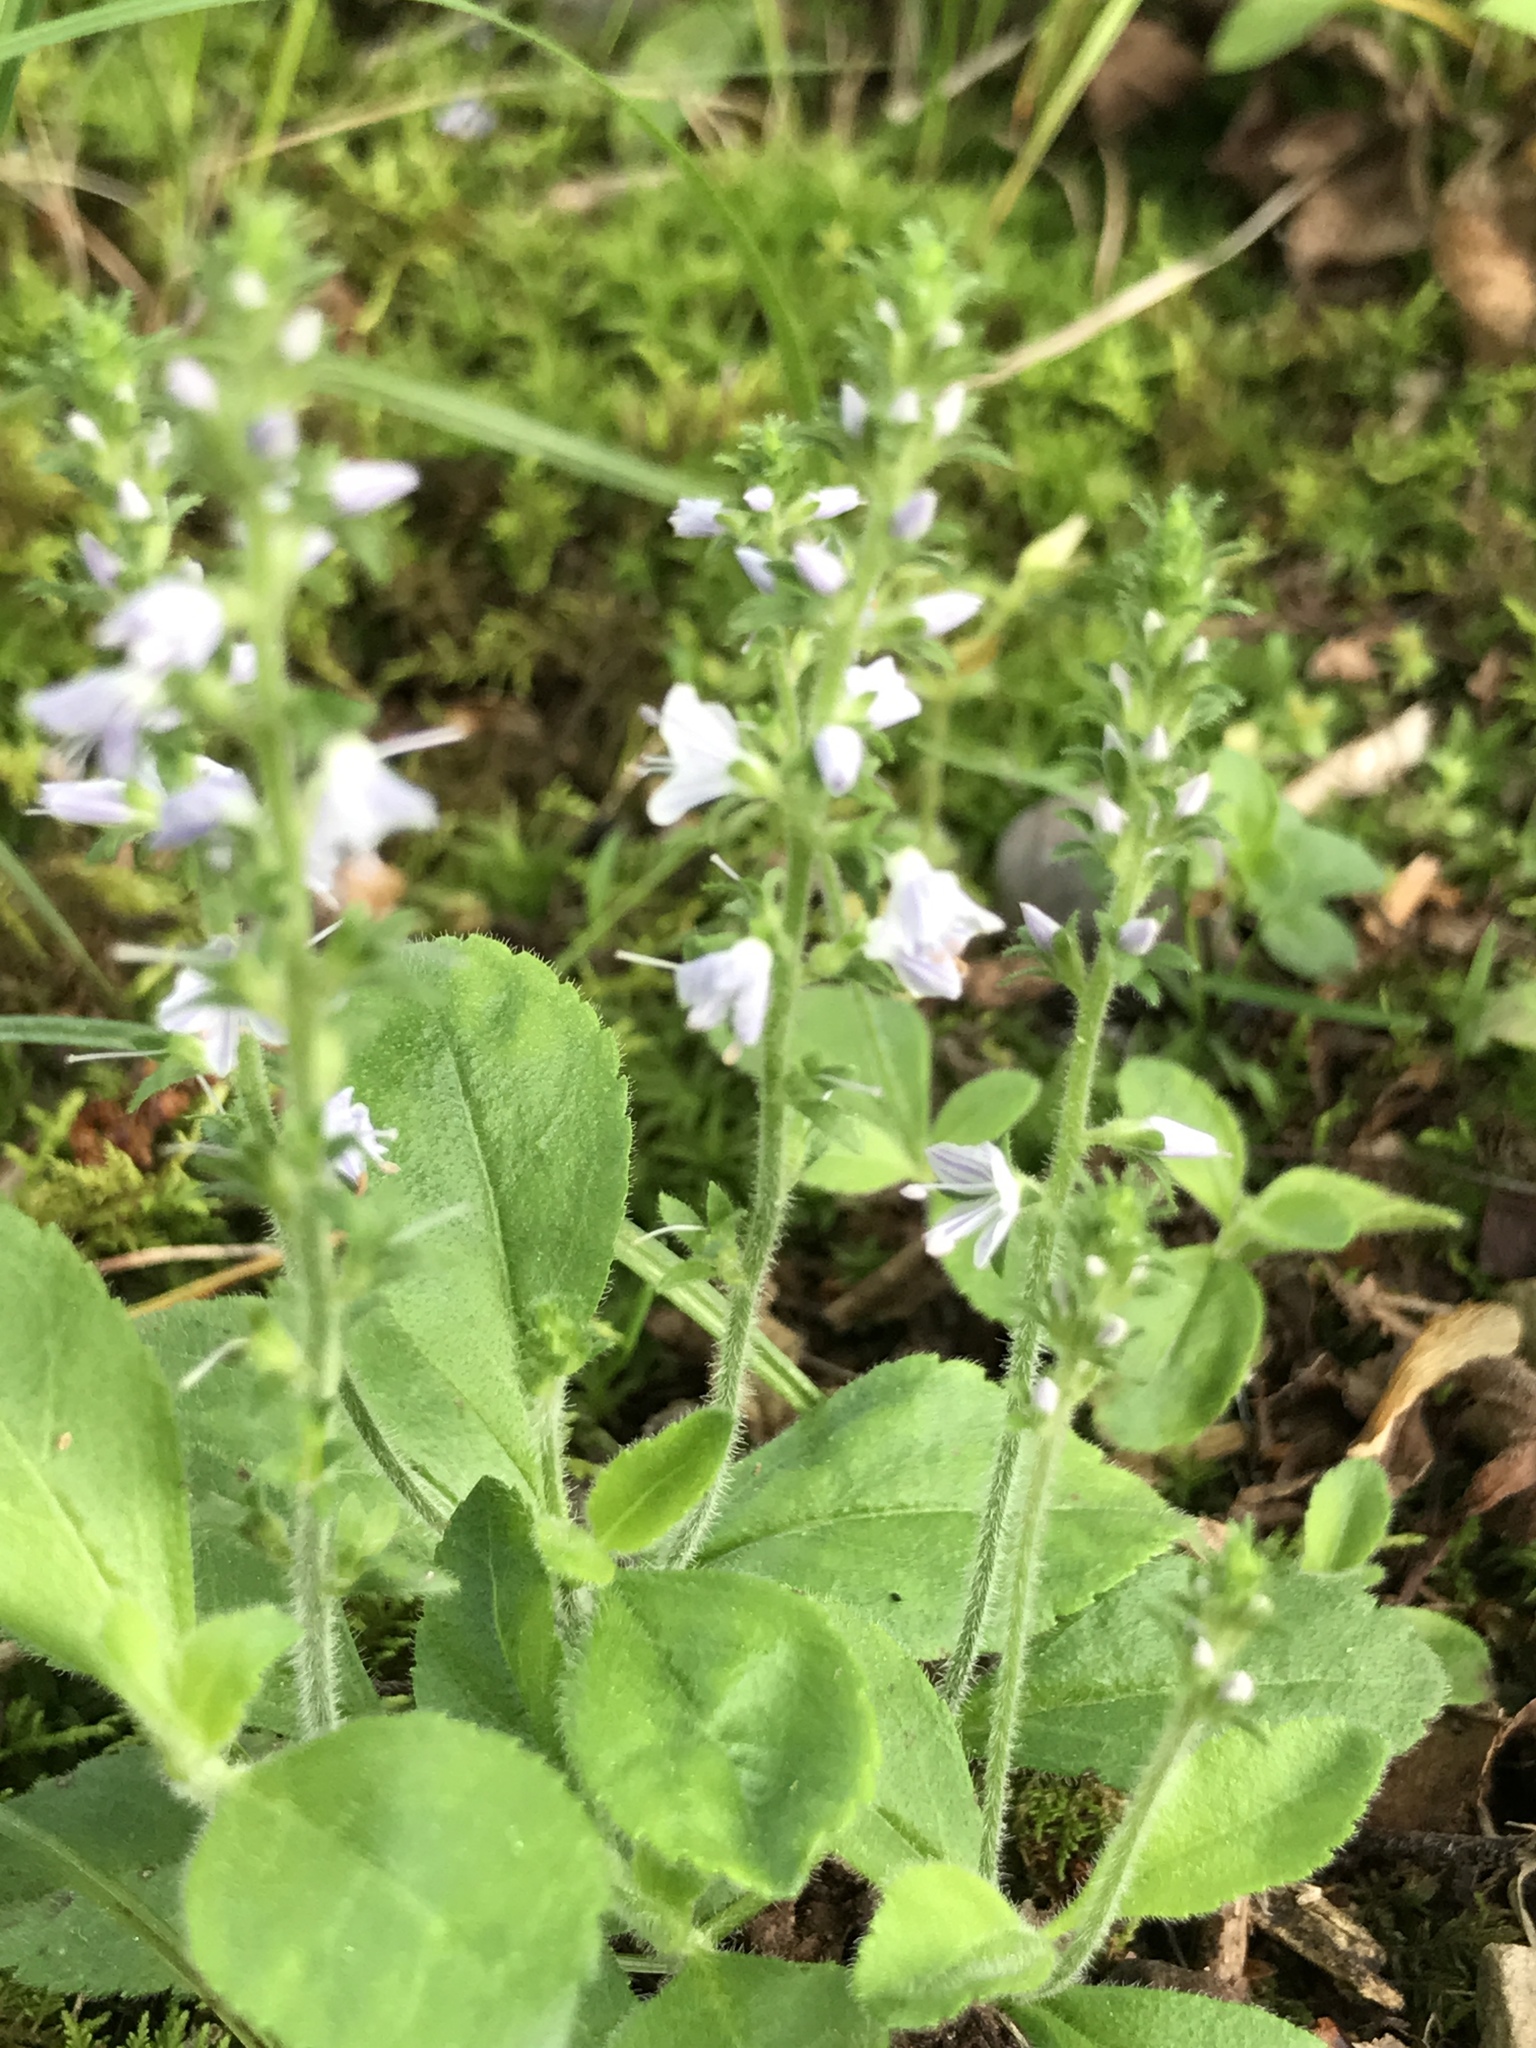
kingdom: Plantae
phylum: Tracheophyta
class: Magnoliopsida
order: Lamiales
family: Plantaginaceae
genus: Veronica
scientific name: Veronica officinalis
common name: Common speedwell
